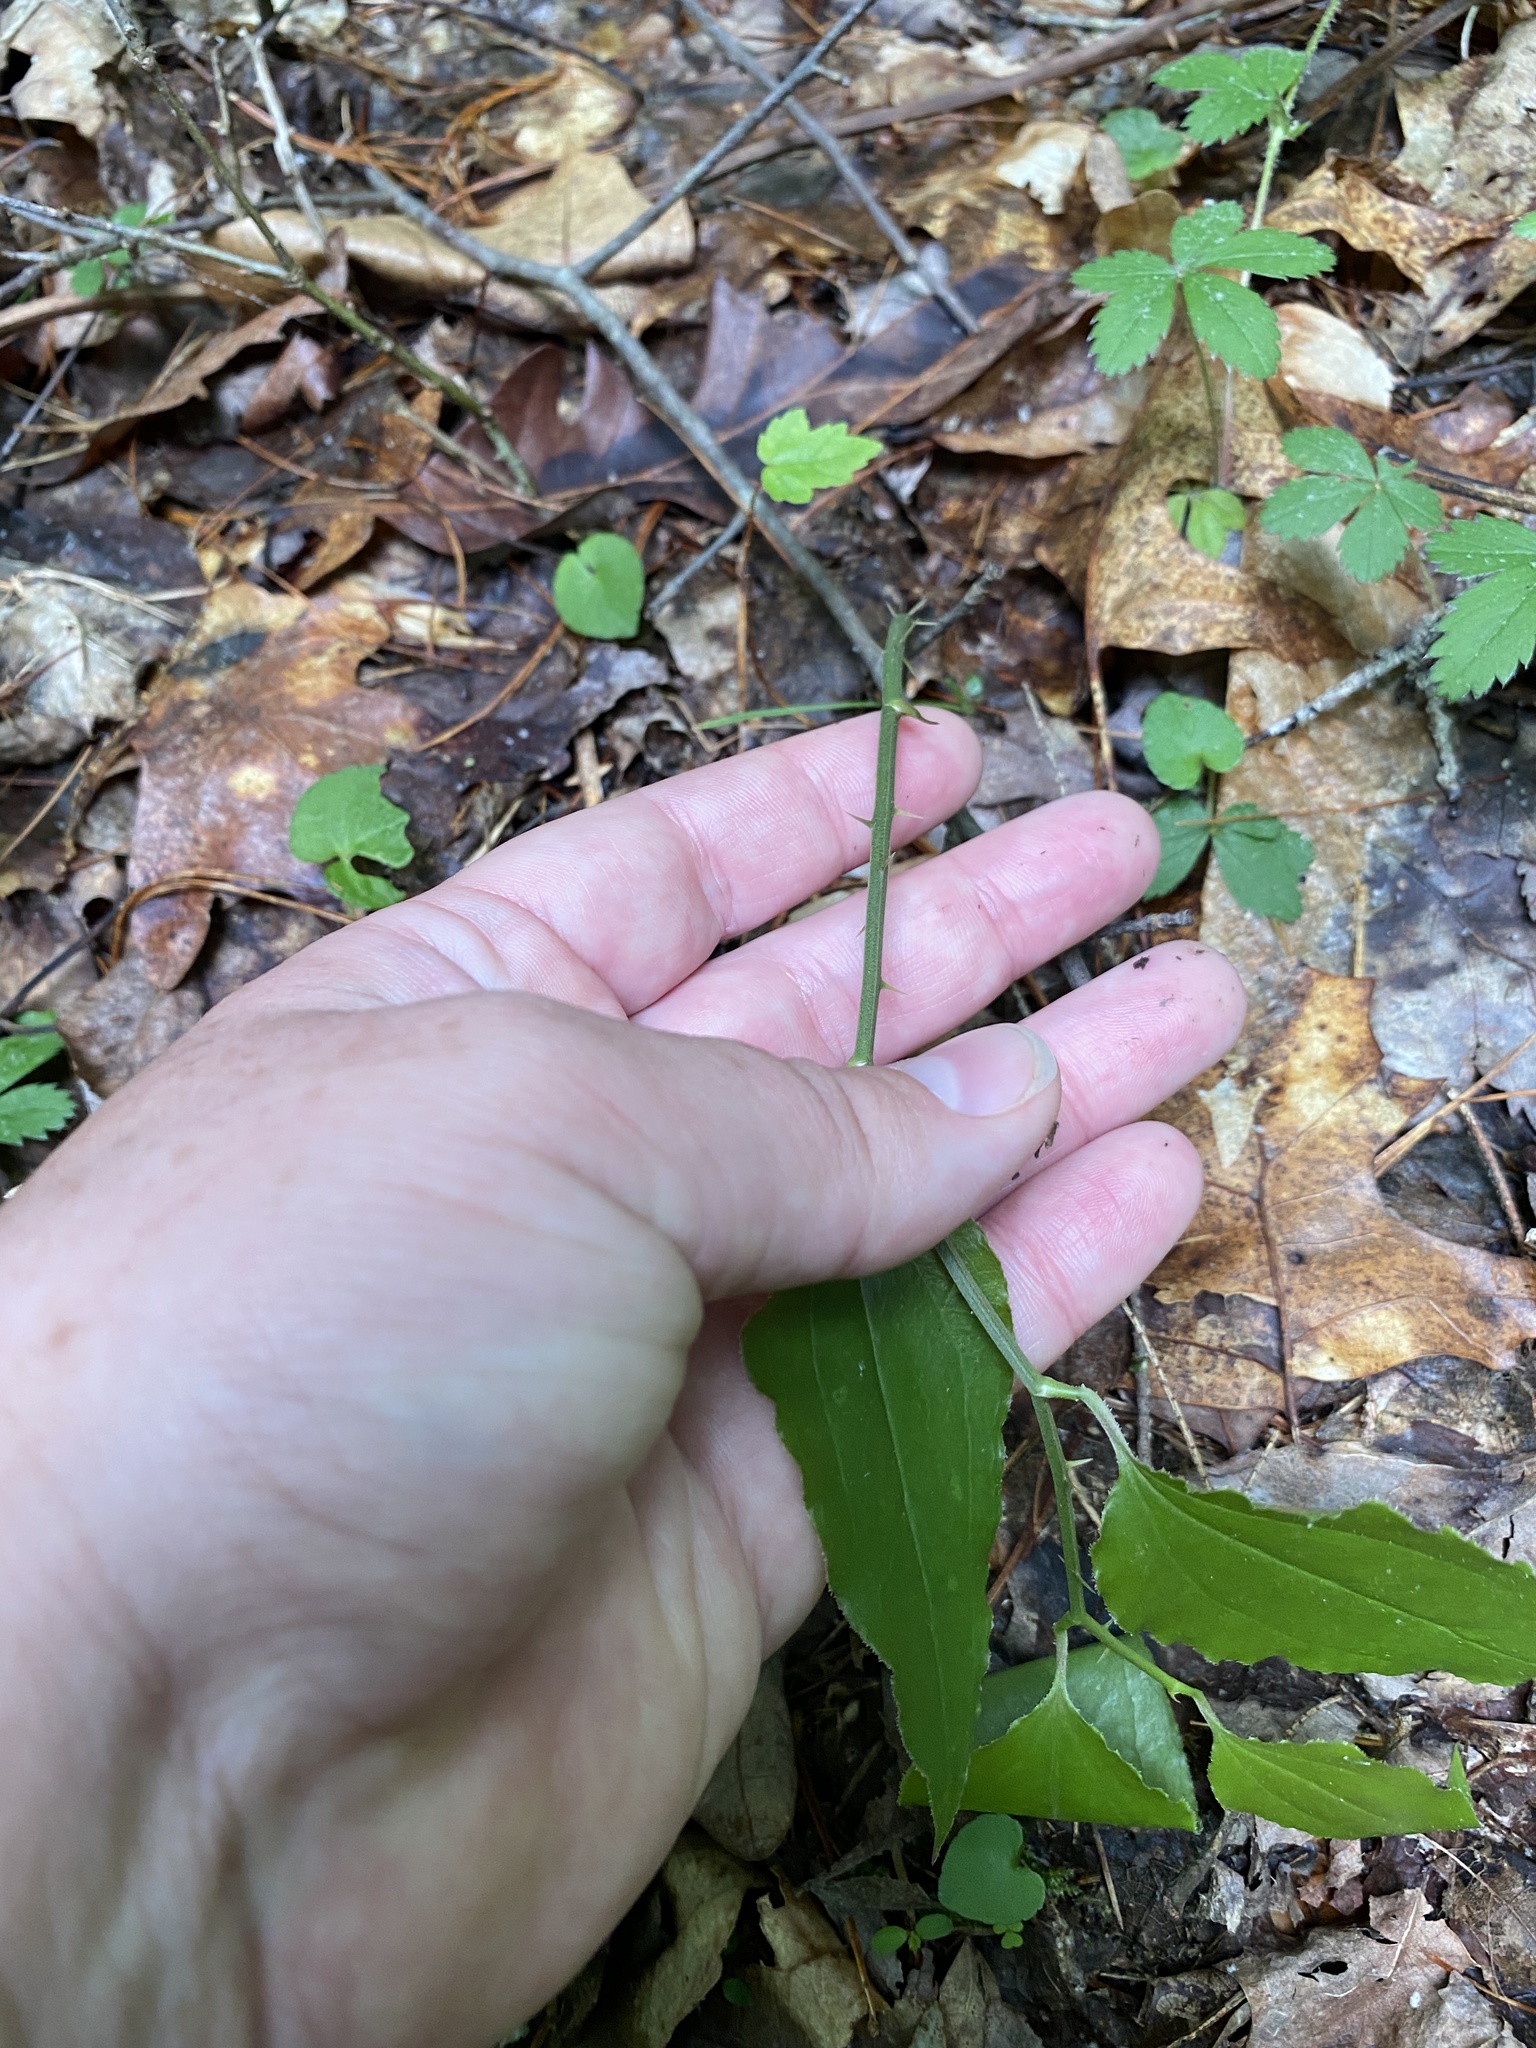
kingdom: Plantae
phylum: Tracheophyta
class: Liliopsida
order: Liliales
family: Smilacaceae
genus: Smilax
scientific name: Smilax tamnoides
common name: Hellfetter
